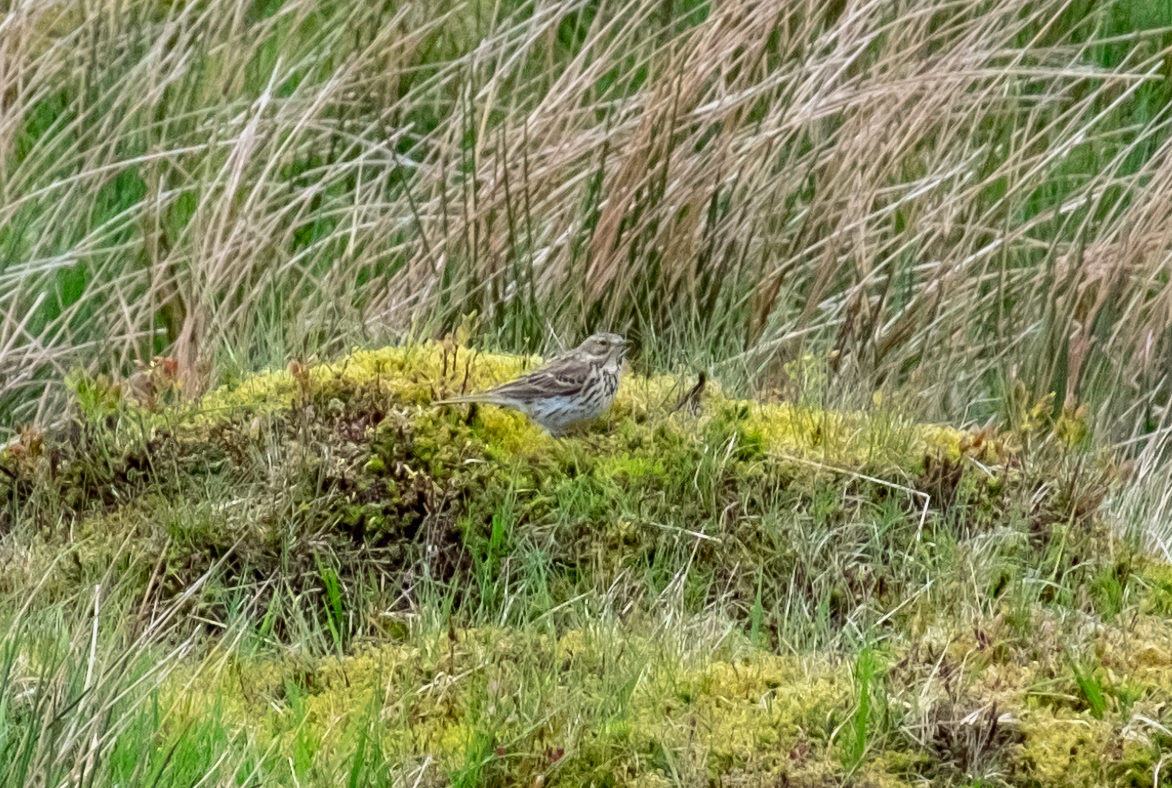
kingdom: Animalia
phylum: Chordata
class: Aves
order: Passeriformes
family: Motacillidae
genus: Anthus
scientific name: Anthus pratensis
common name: Meadow pipit
